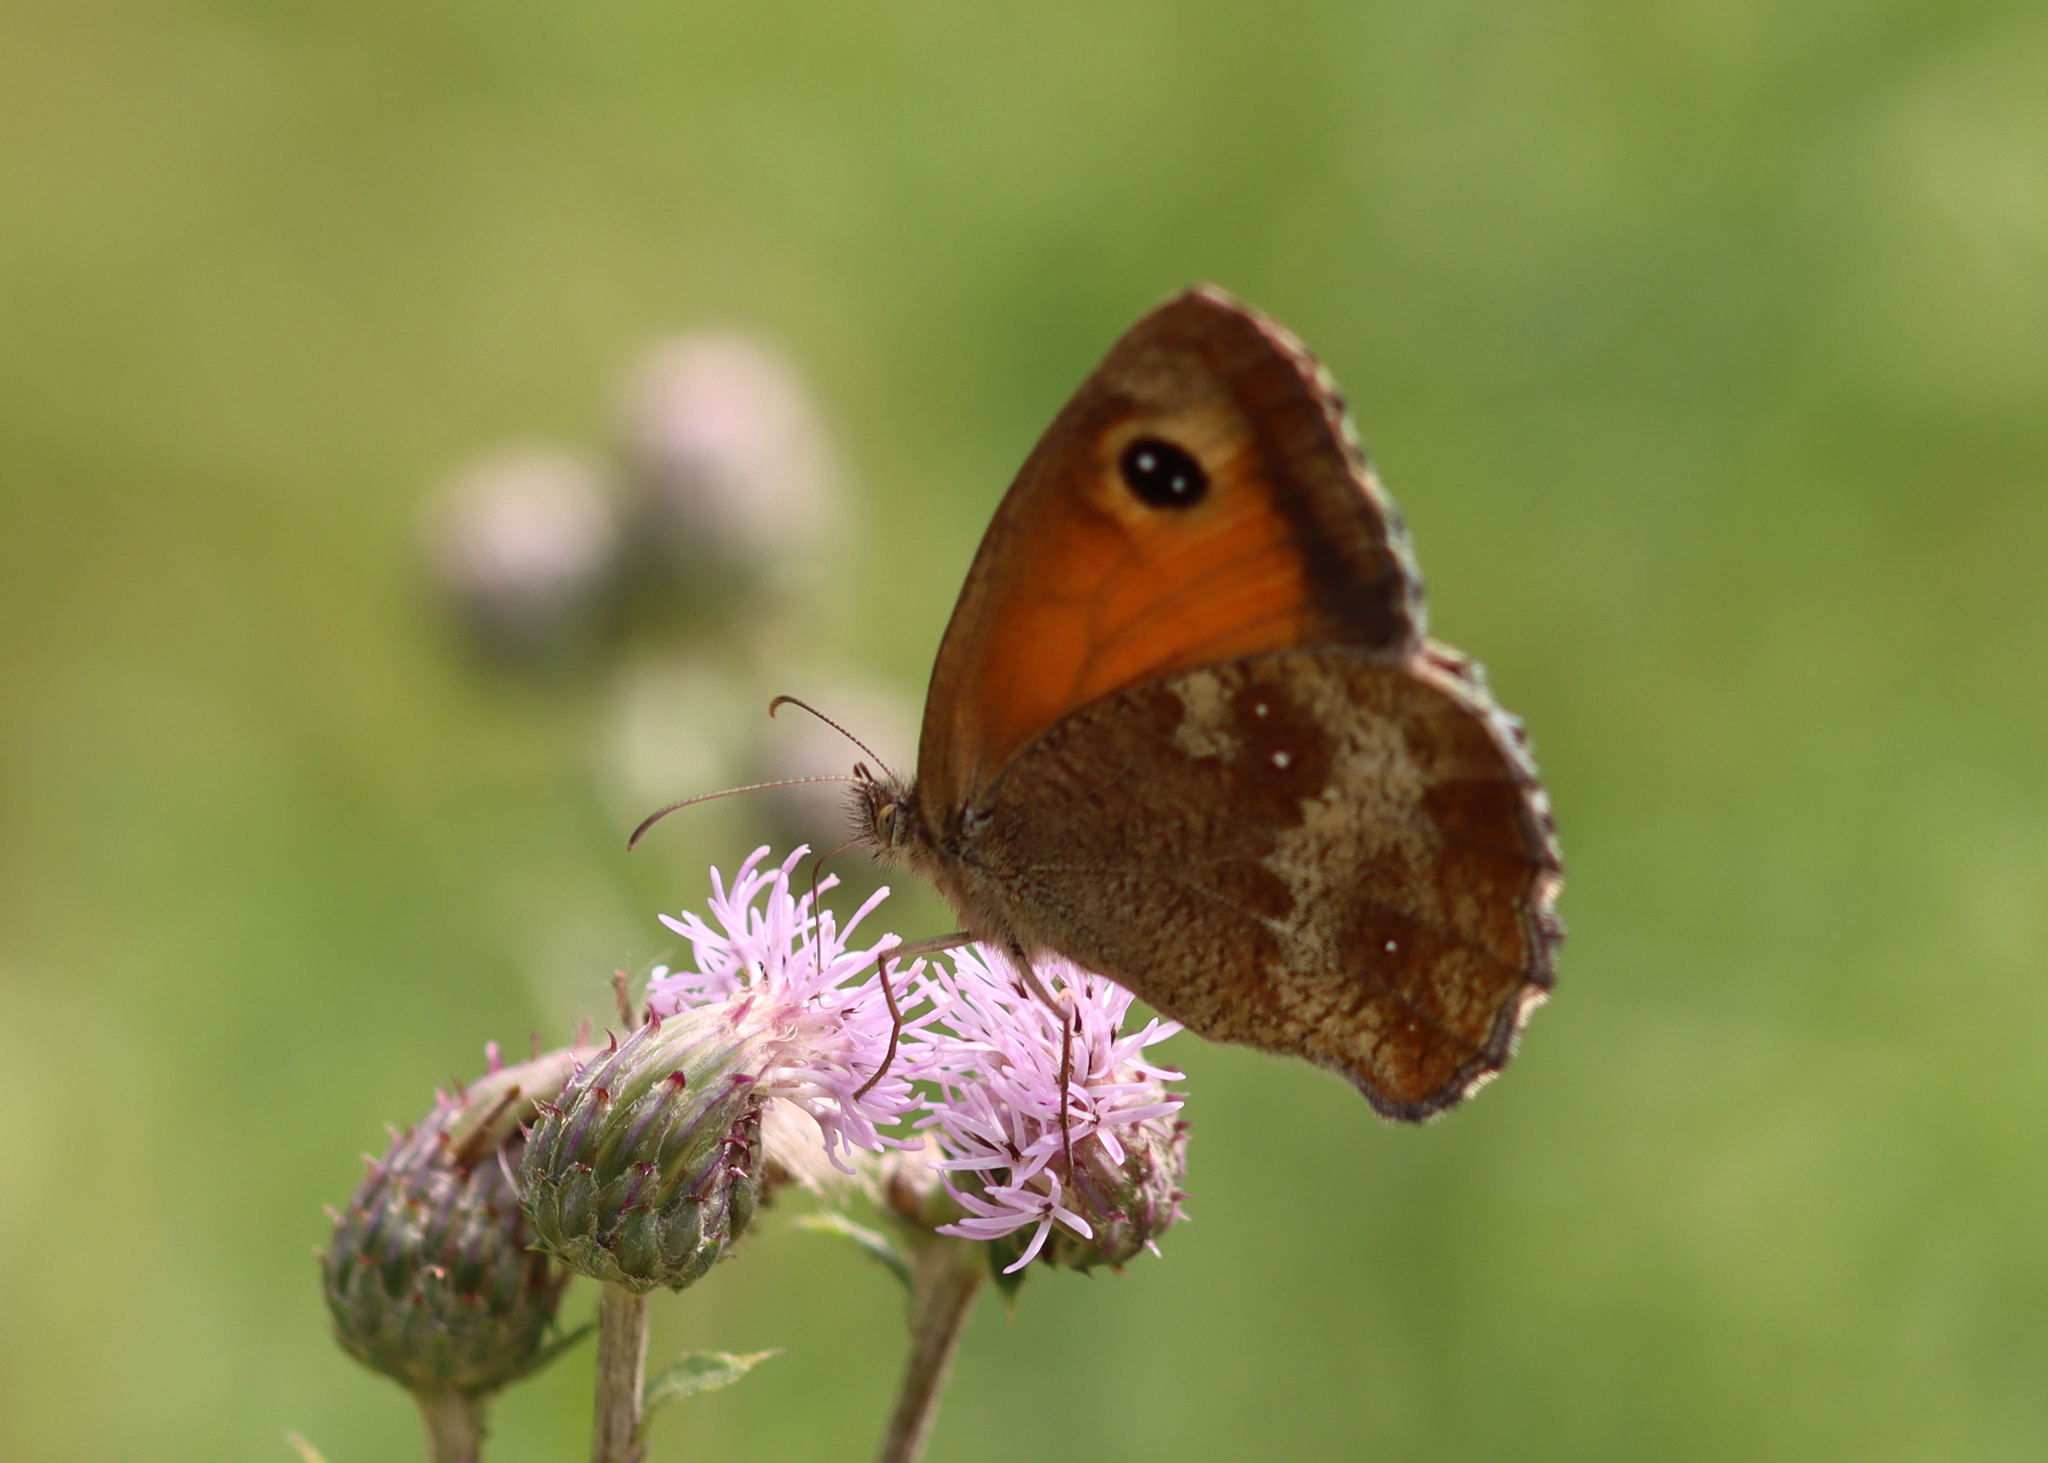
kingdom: Animalia
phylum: Arthropoda
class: Insecta
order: Lepidoptera
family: Nymphalidae
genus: Pyronia
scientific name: Pyronia tithonus
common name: Gatekeeper
